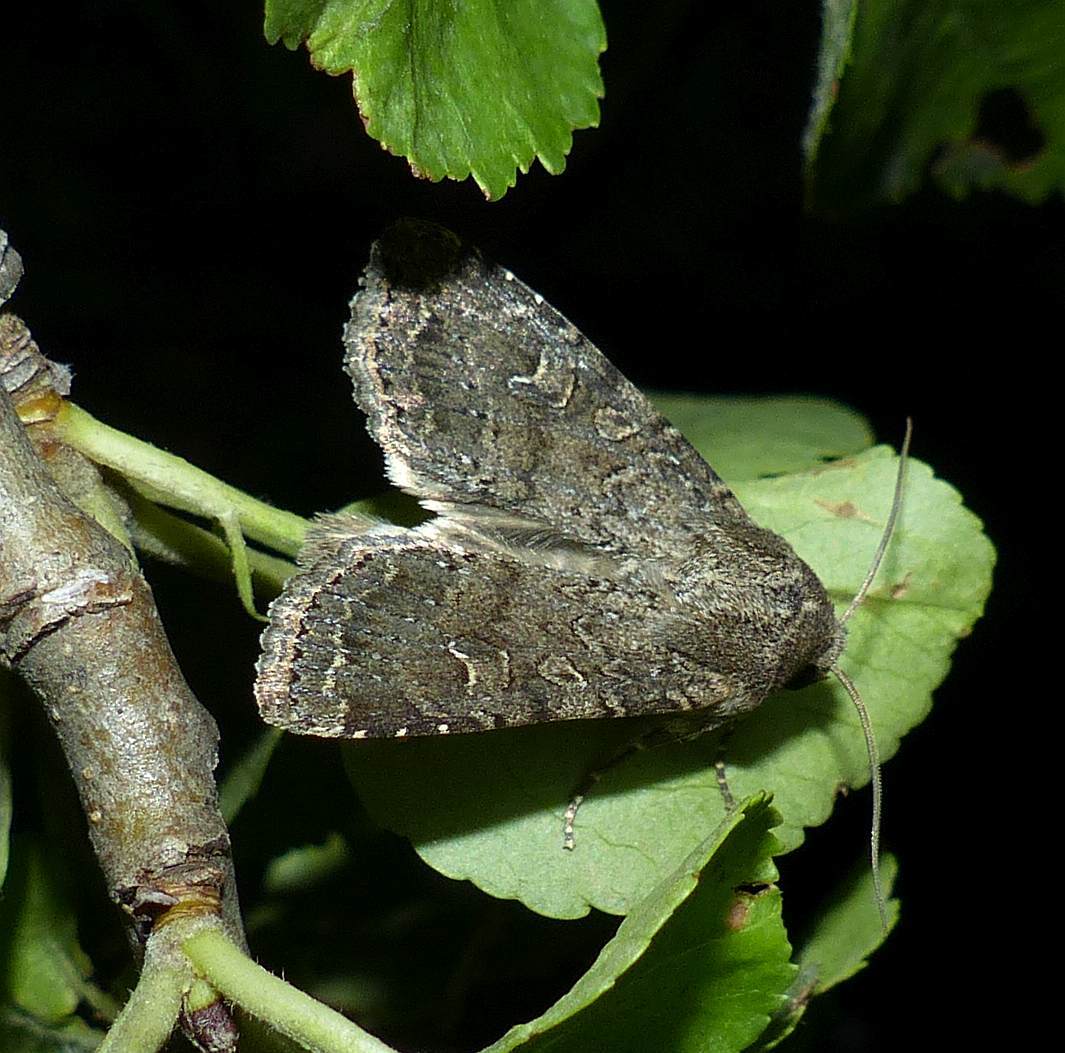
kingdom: Animalia
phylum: Arthropoda
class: Insecta
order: Lepidoptera
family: Noctuidae
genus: Apamea
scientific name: Apamea devastator
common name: Glassy cutworm
